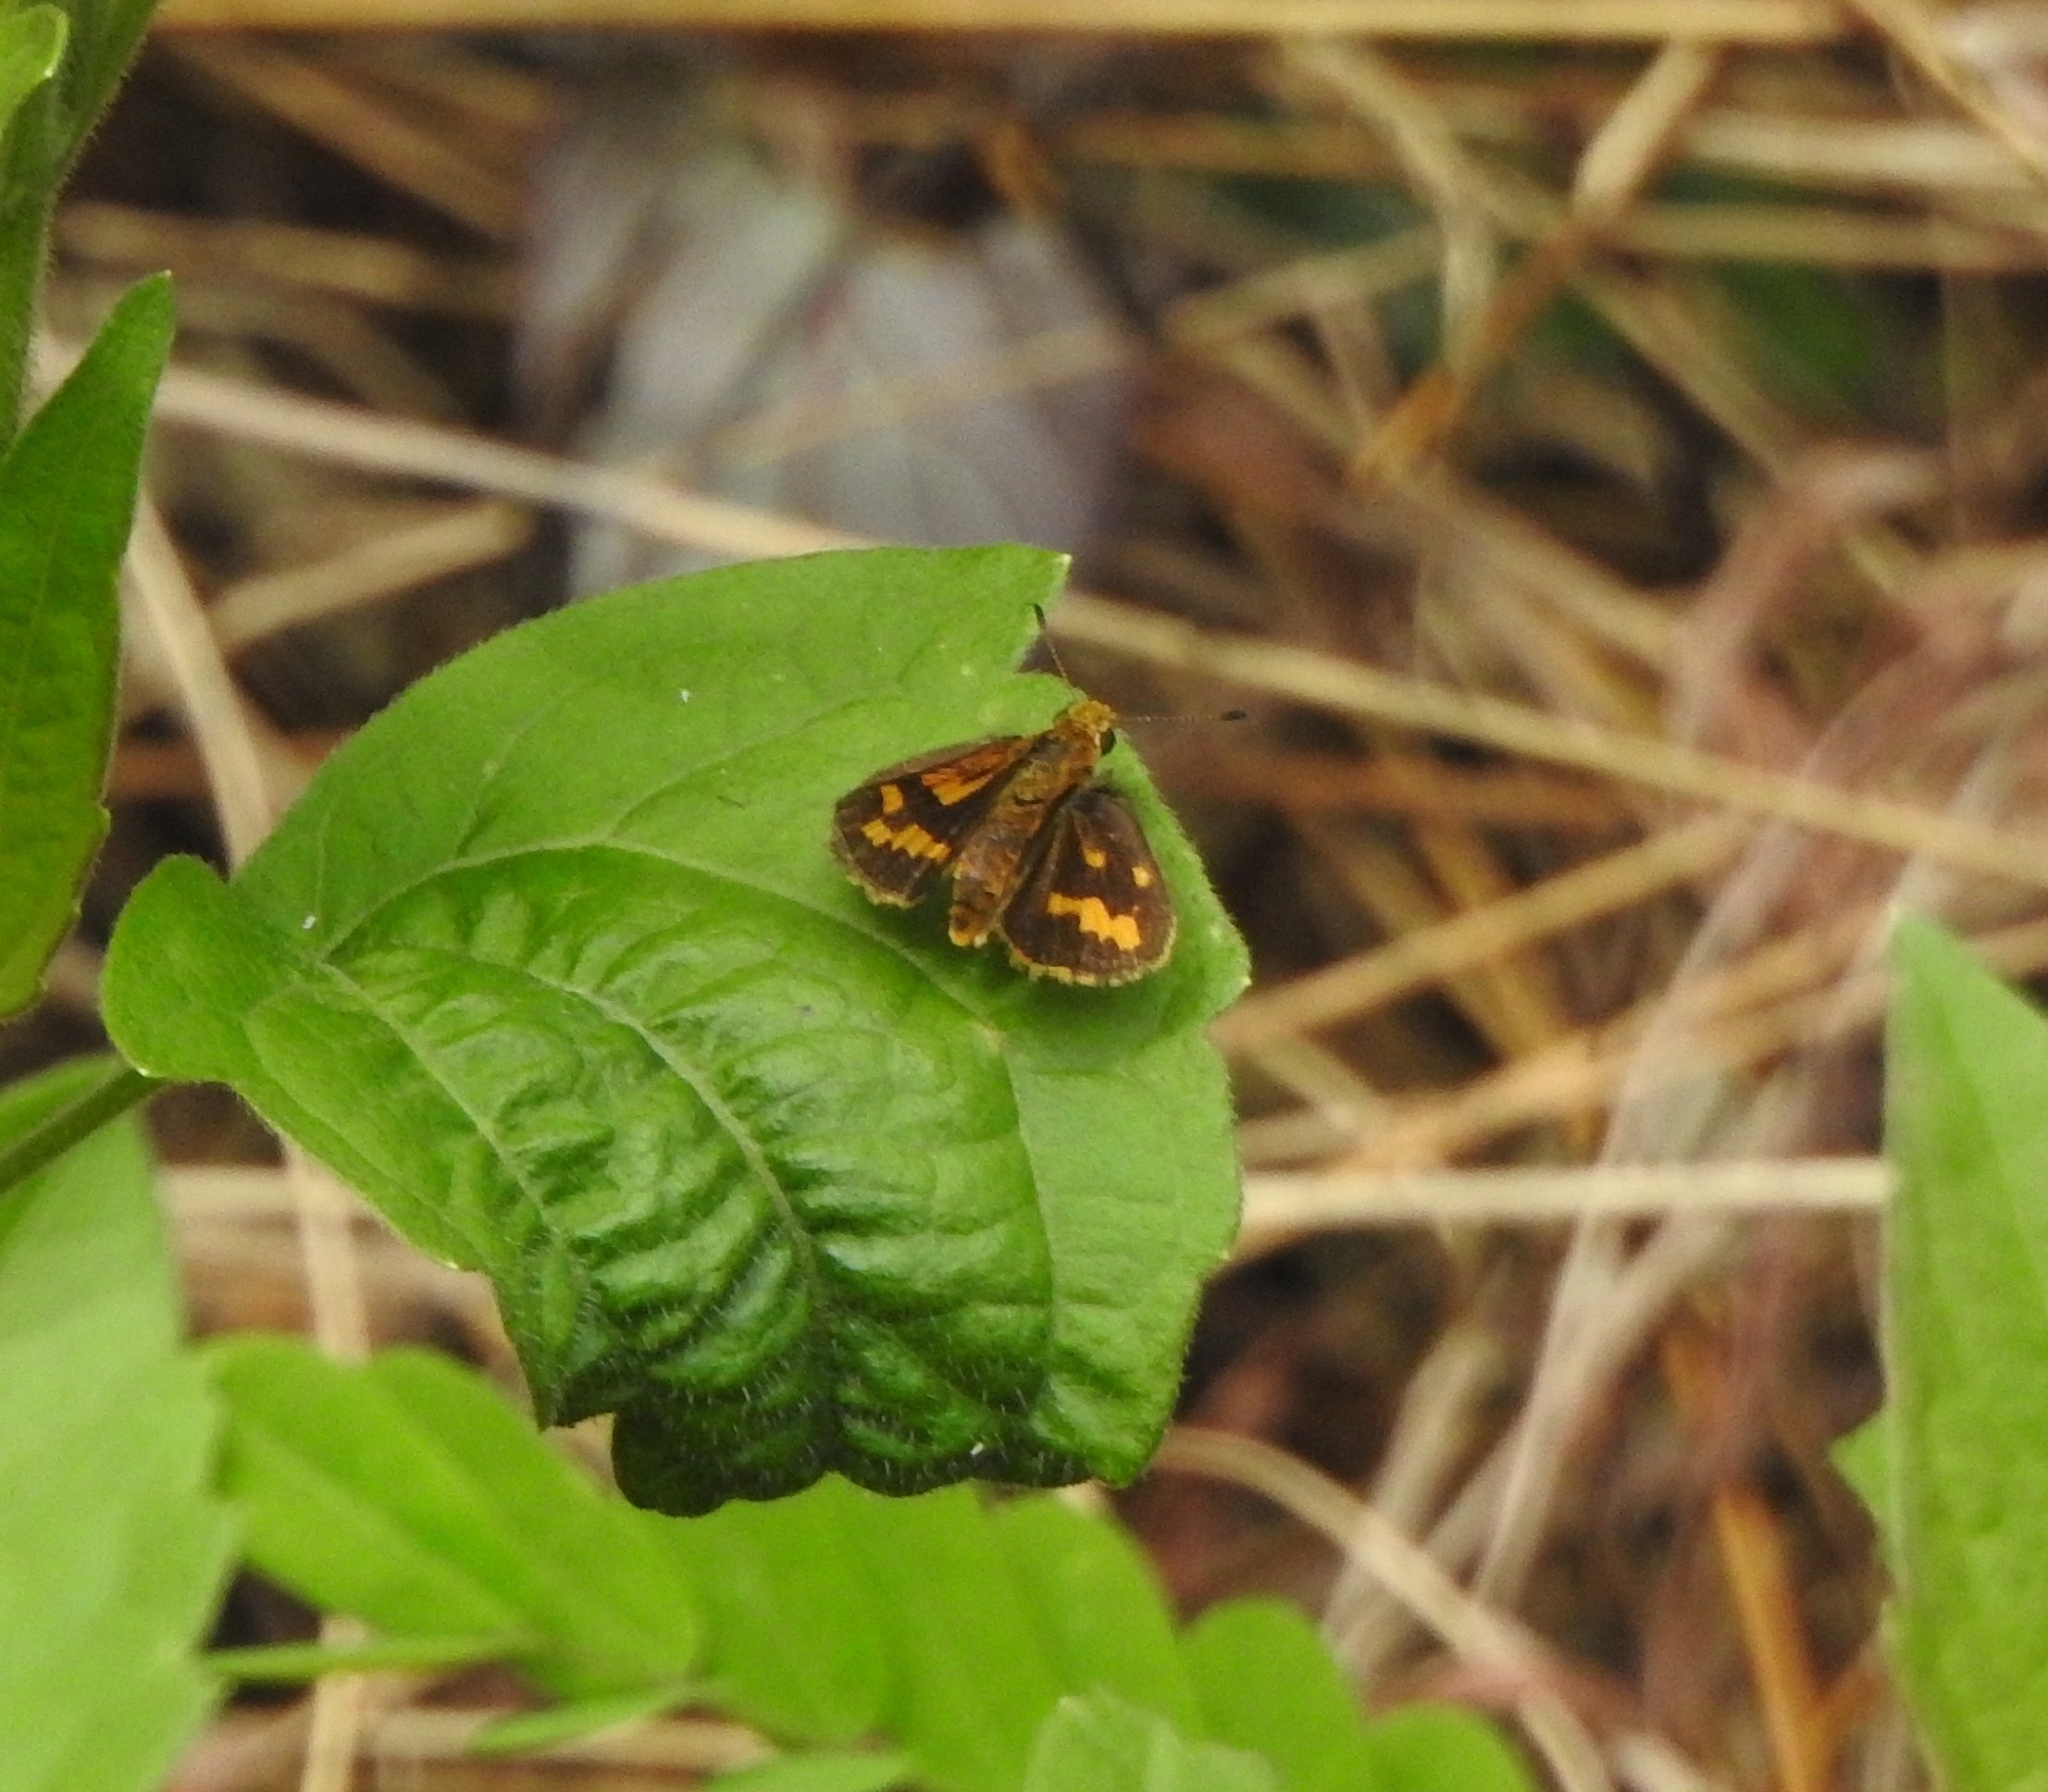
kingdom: Animalia
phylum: Arthropoda
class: Insecta
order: Lepidoptera
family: Hesperiidae
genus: Potanthus
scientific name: Potanthus pseudomaesa
